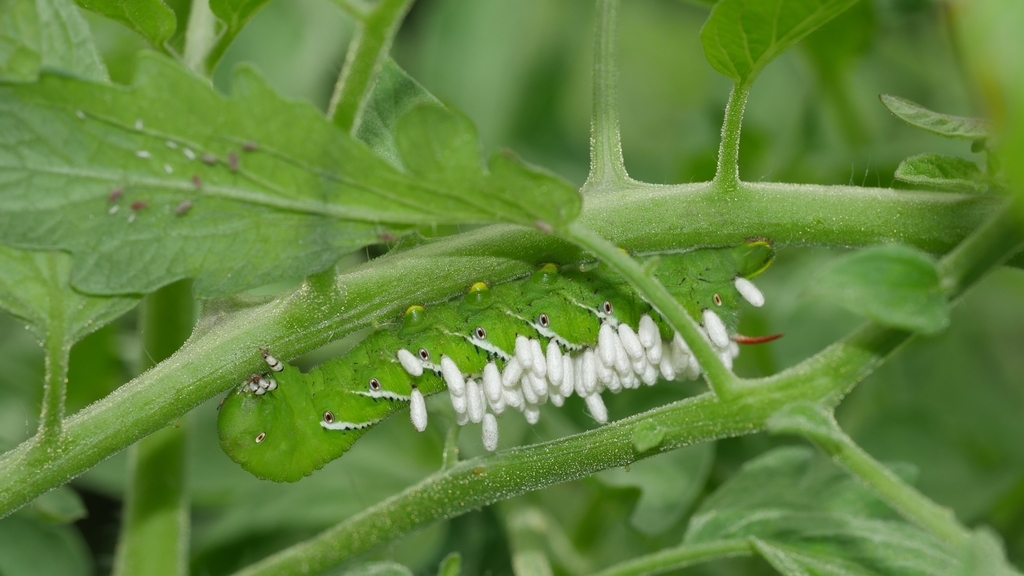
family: Polydnaviriformidae
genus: Bracoviriform
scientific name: Bracoviriform congregatae
